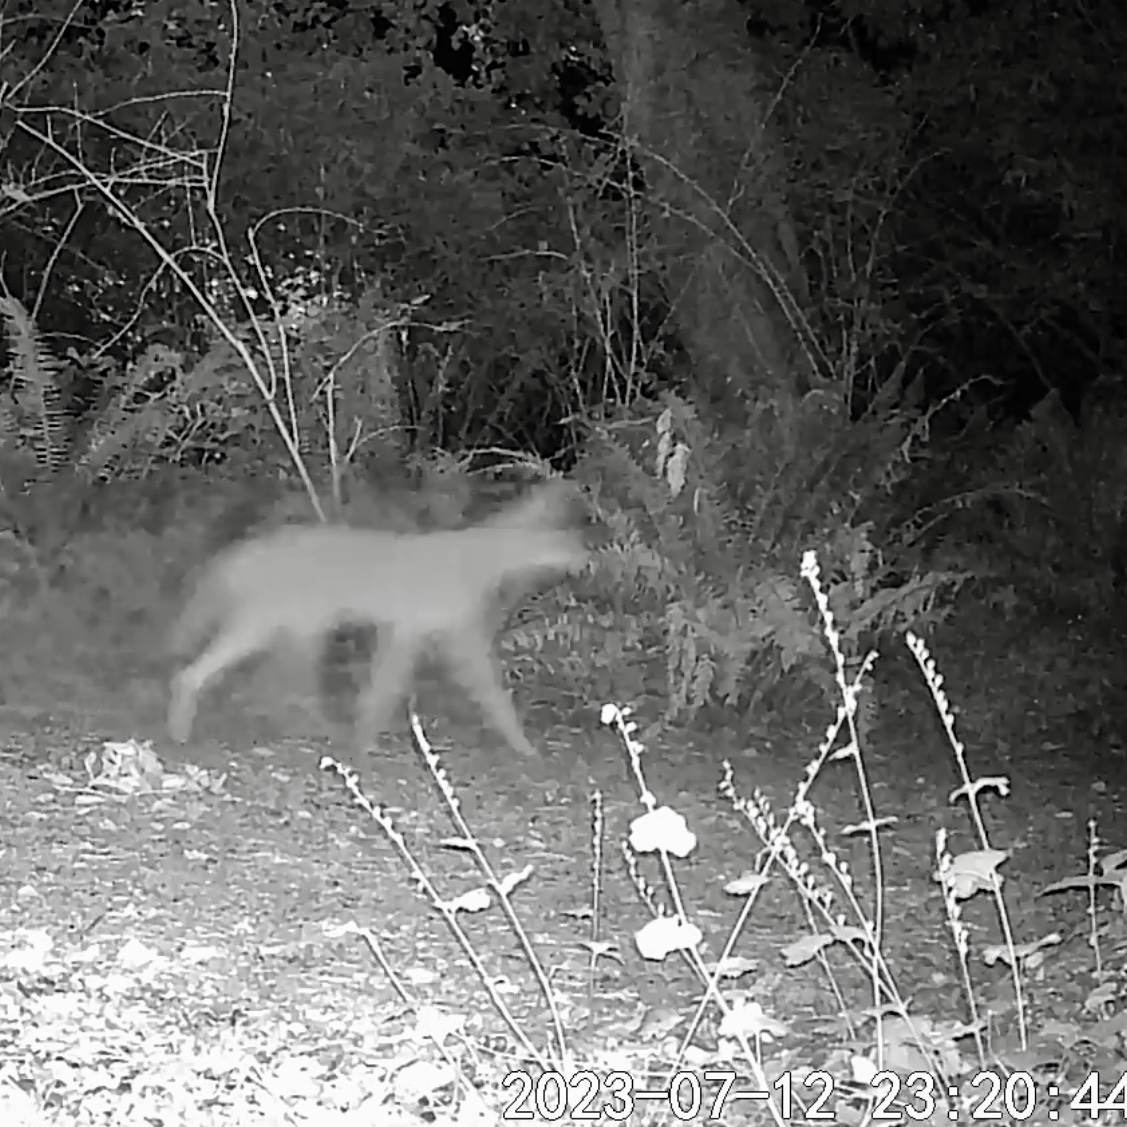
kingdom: Animalia
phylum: Chordata
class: Mammalia
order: Carnivora
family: Canidae
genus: Canis
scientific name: Canis latrans
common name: Coyote
